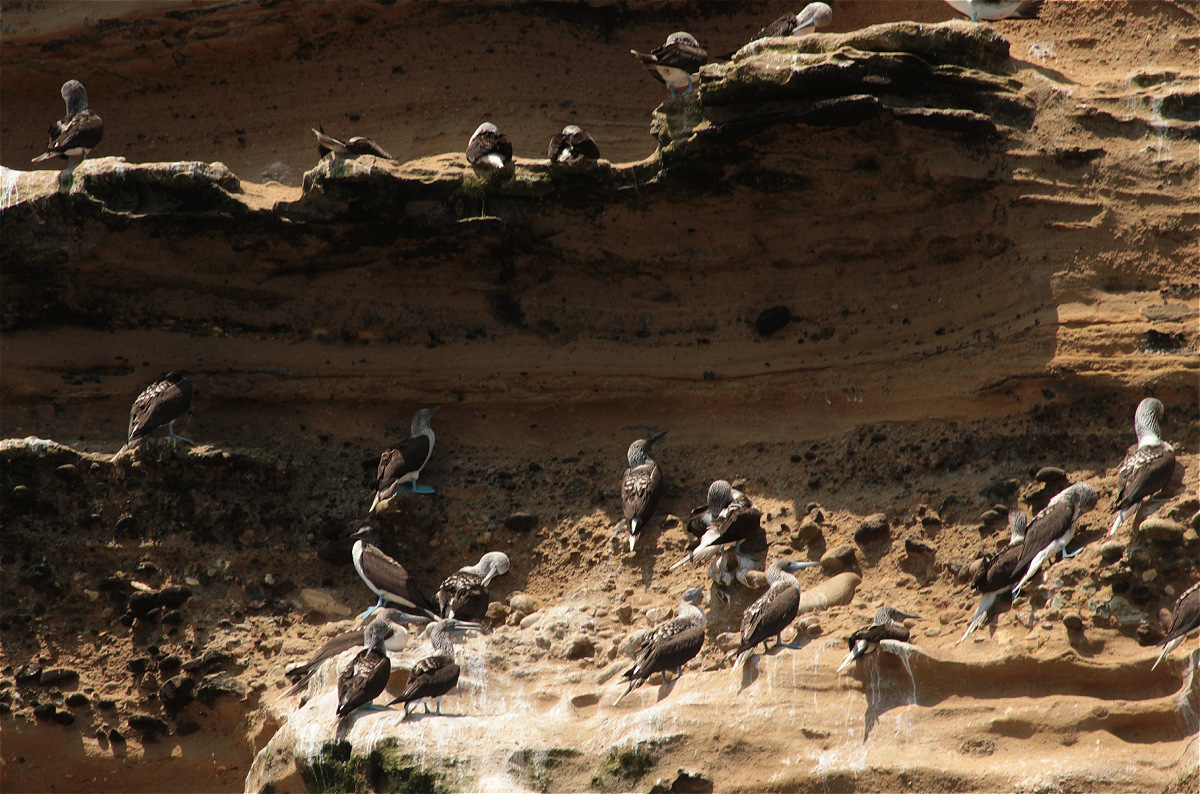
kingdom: Animalia
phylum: Chordata
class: Aves
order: Suliformes
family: Sulidae
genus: Sula
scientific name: Sula nebouxii
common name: Blue-footed booby
